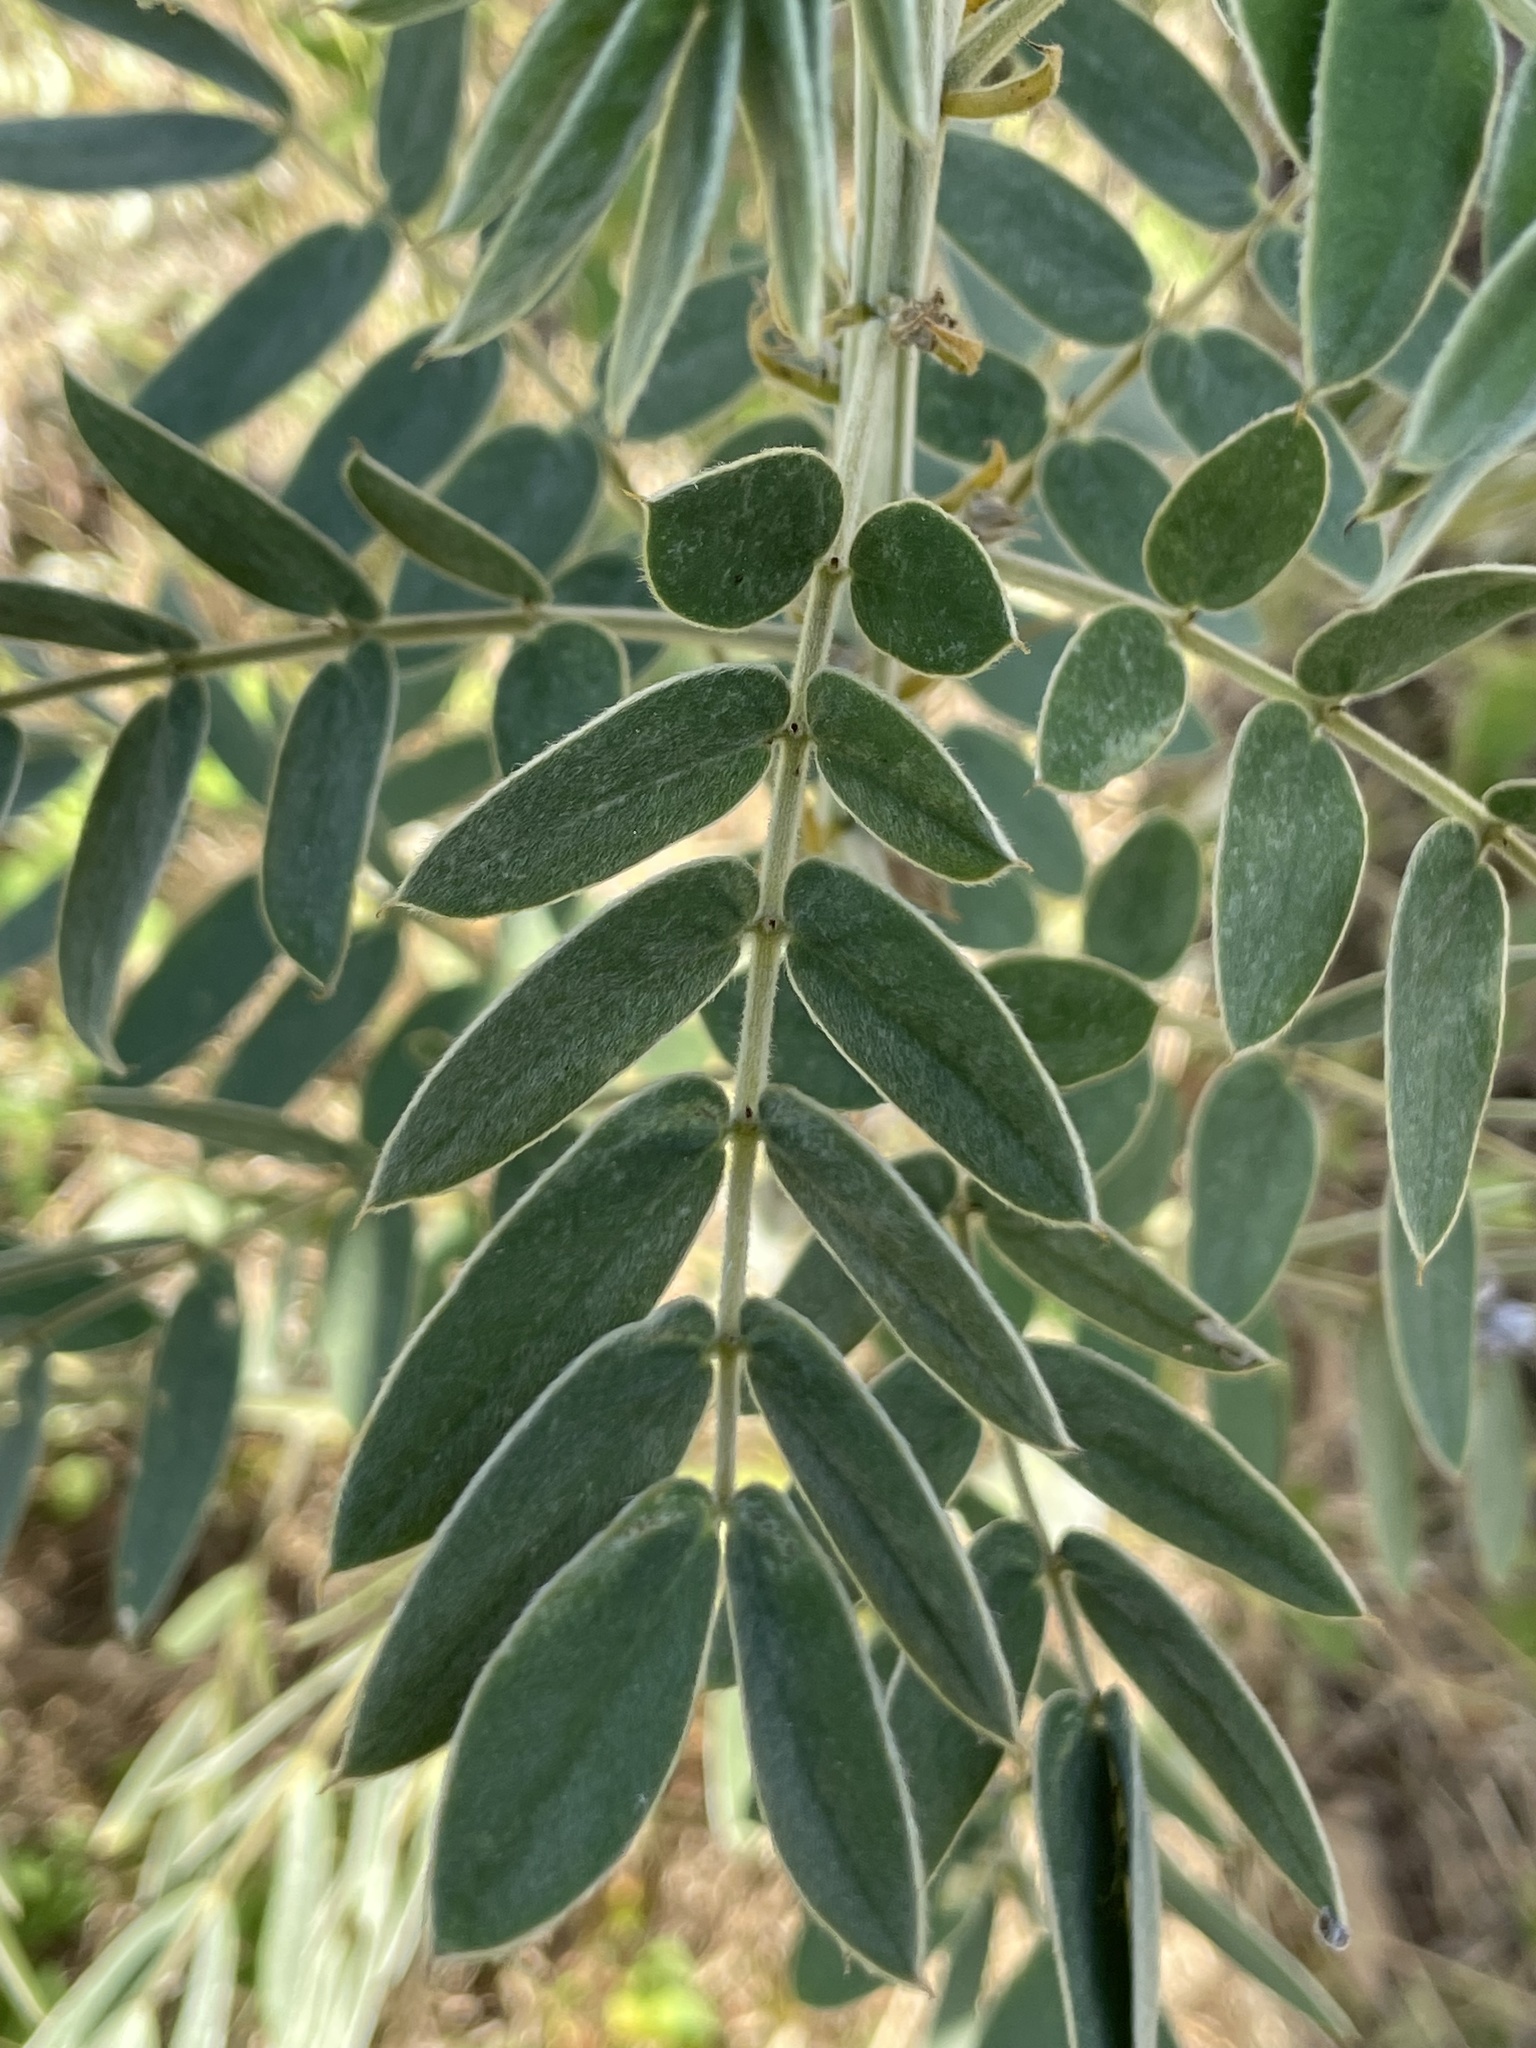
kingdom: Plantae
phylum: Tracheophyta
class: Magnoliopsida
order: Fabales
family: Fabaceae
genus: Senna
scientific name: Senna lindheimeriana
